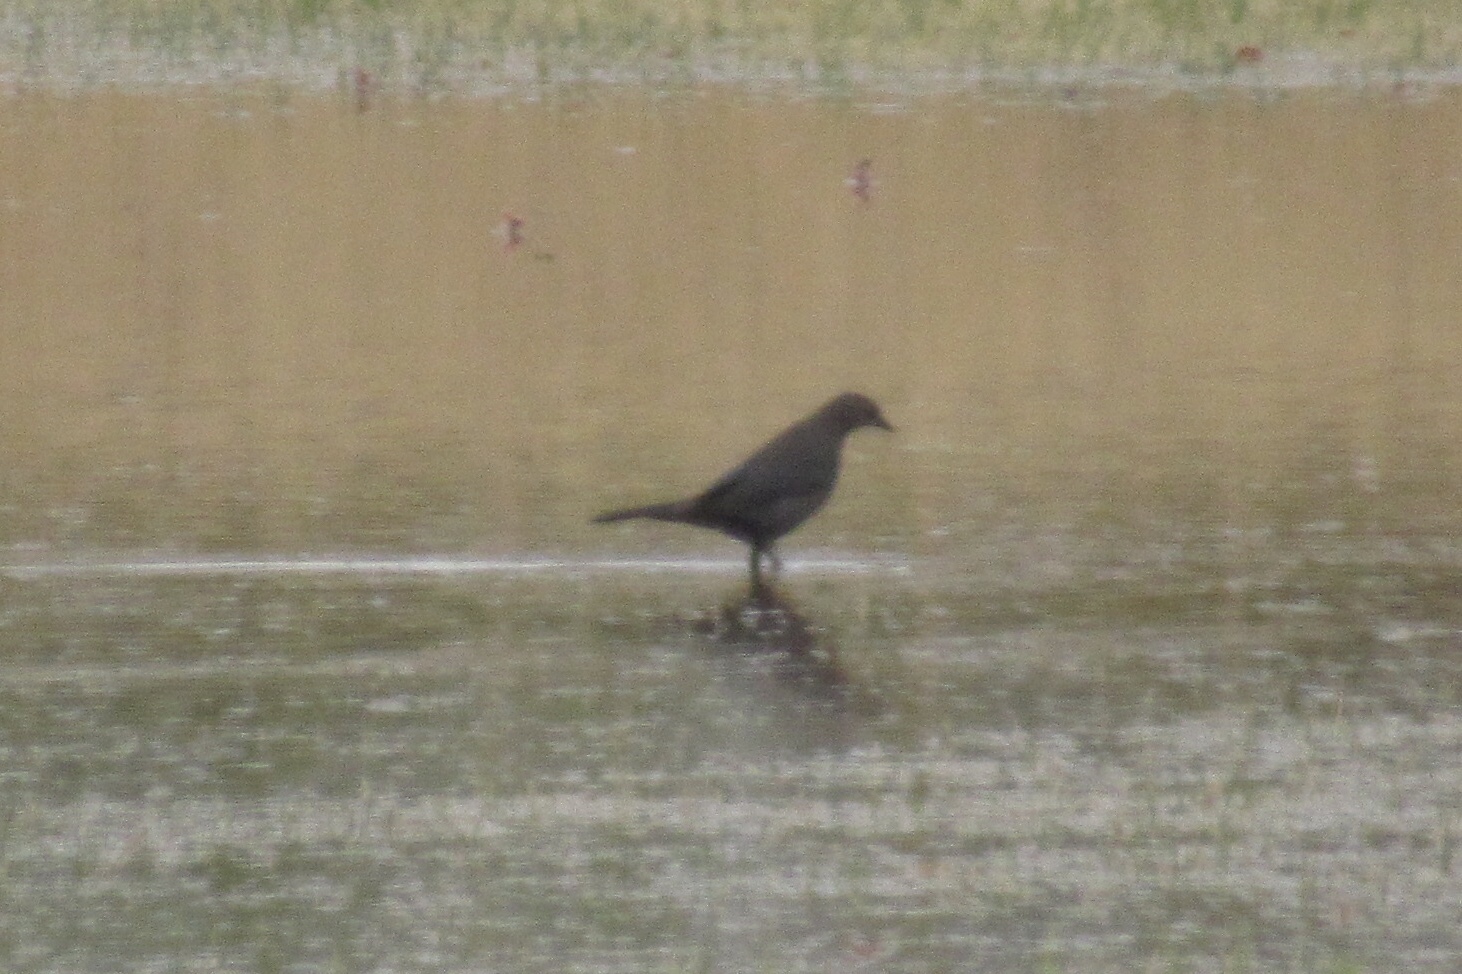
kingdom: Animalia
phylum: Chordata
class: Aves
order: Passeriformes
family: Icteridae
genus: Euphagus
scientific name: Euphagus cyanocephalus
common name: Brewer's blackbird
